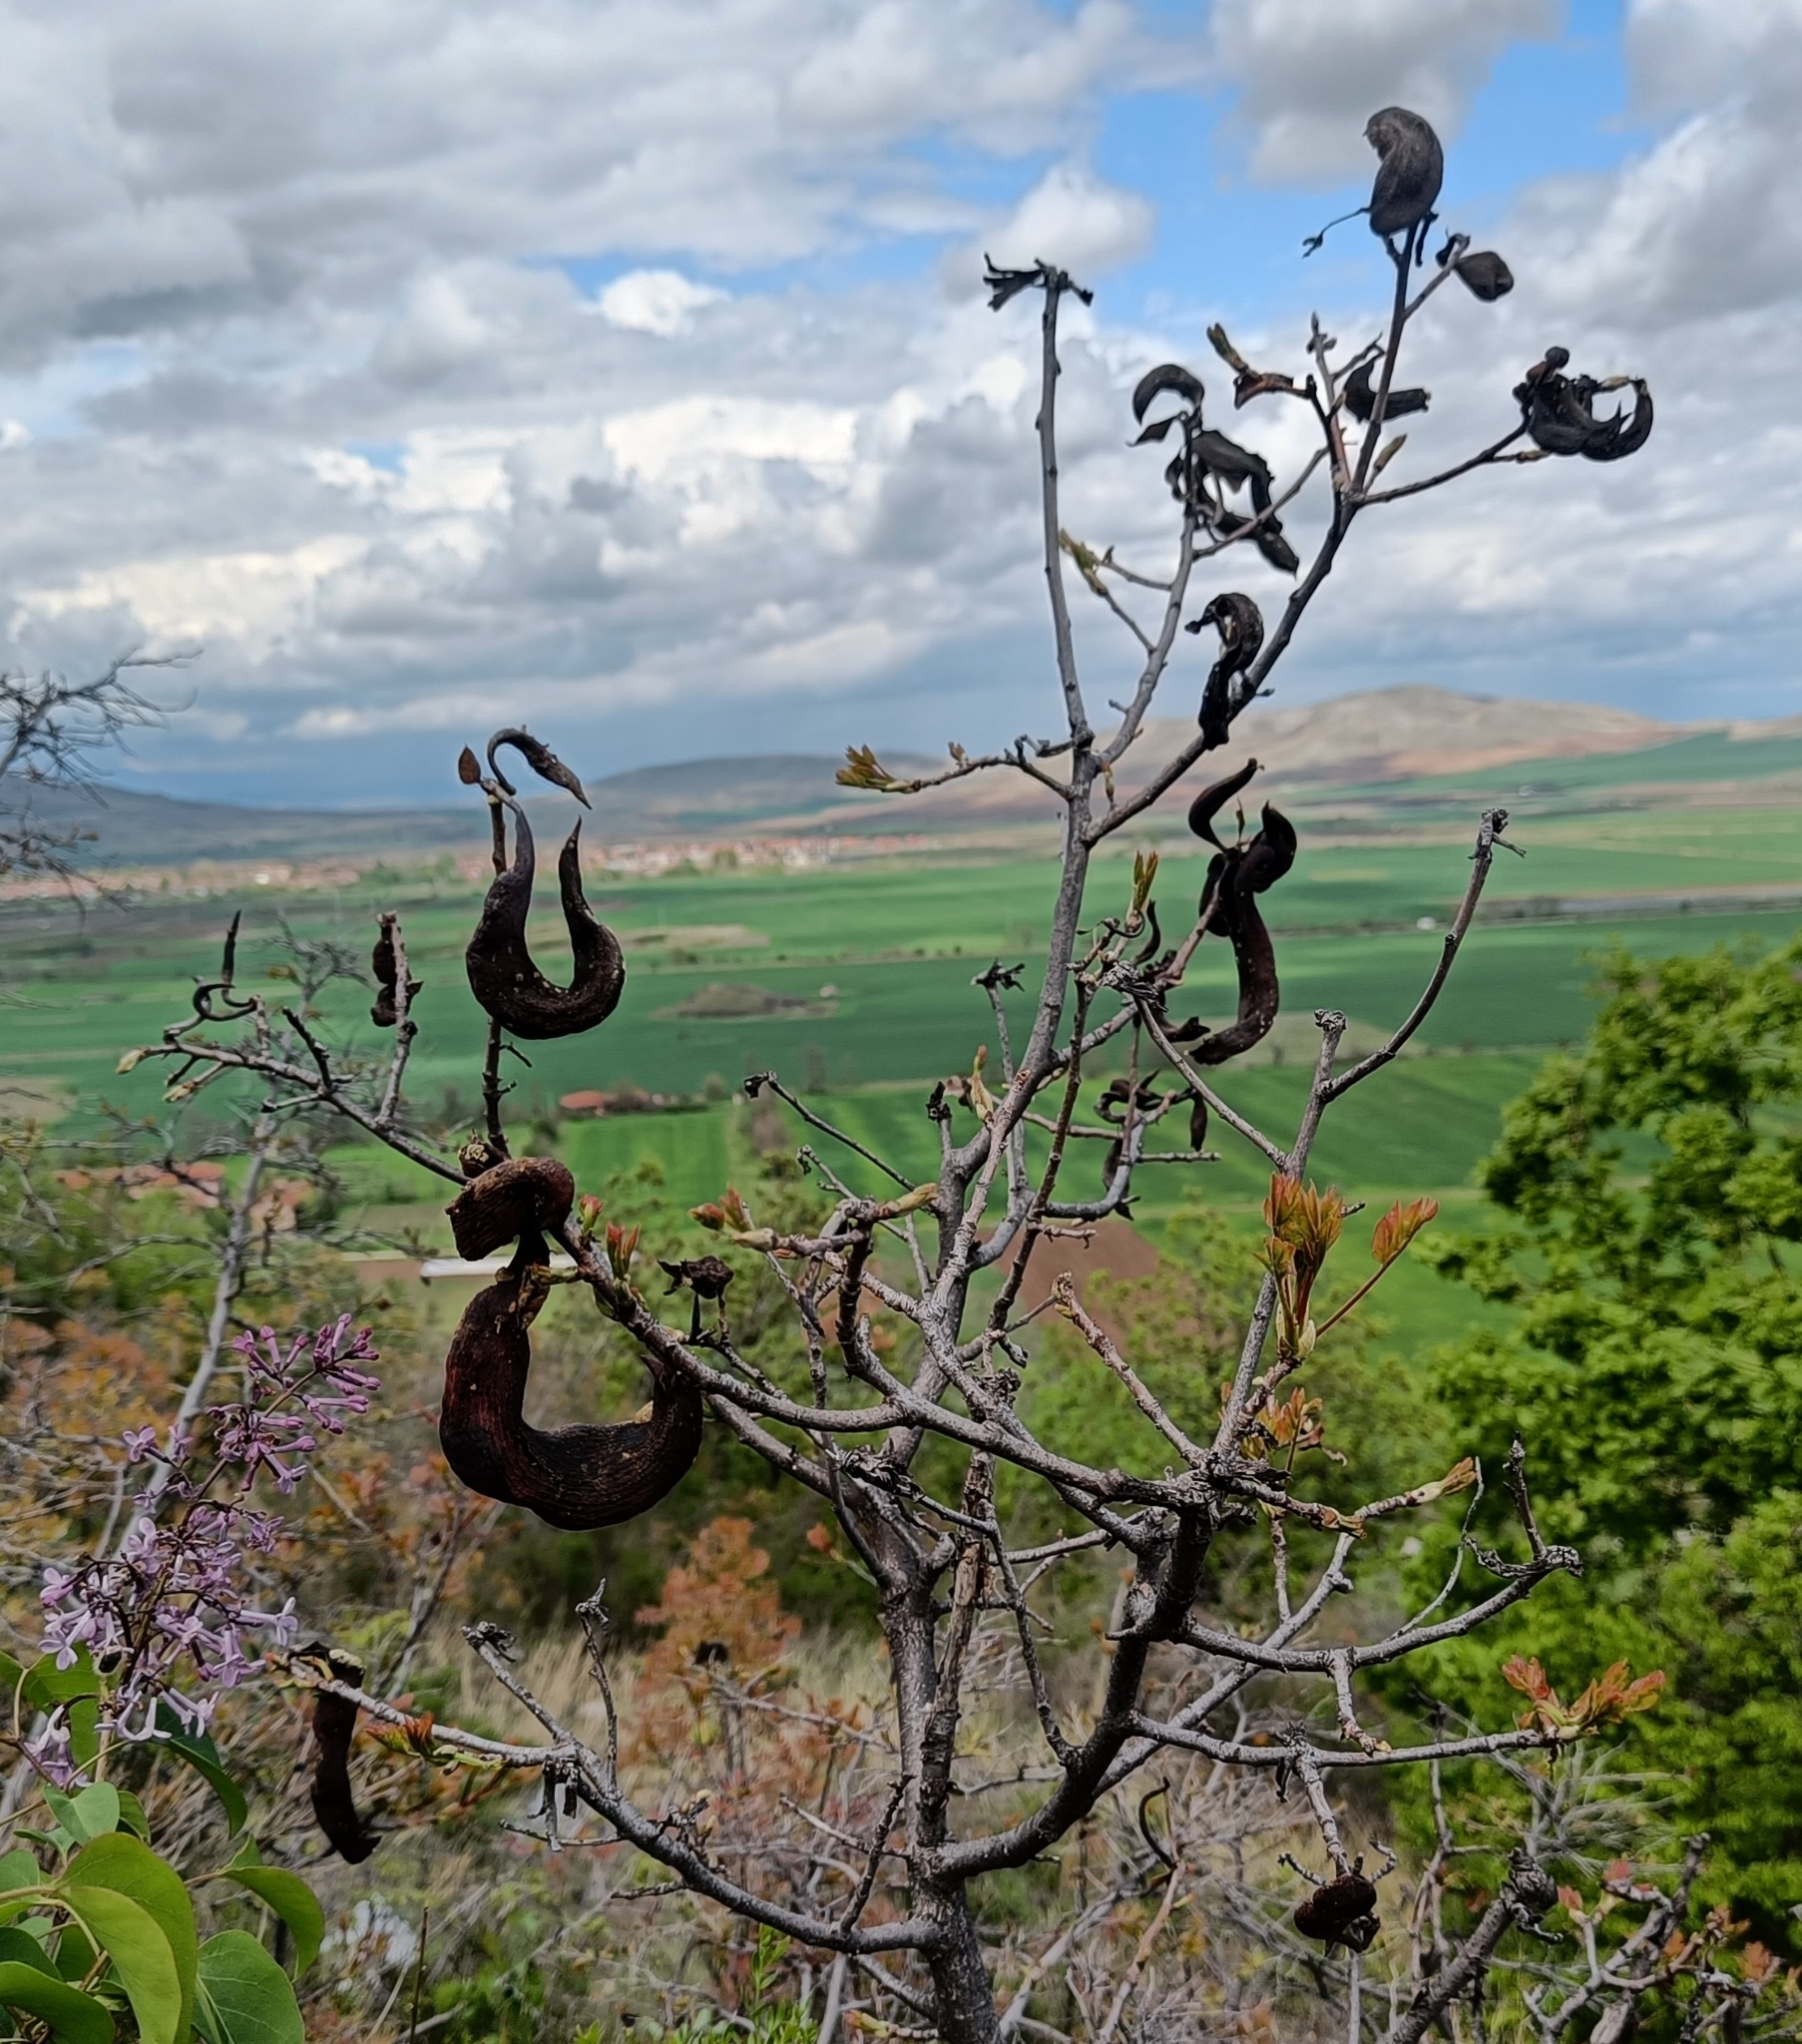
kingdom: Plantae
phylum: Tracheophyta
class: Magnoliopsida
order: Sapindales
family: Anacardiaceae
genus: Pistacia
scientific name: Pistacia terebinthus
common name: Terebinth
